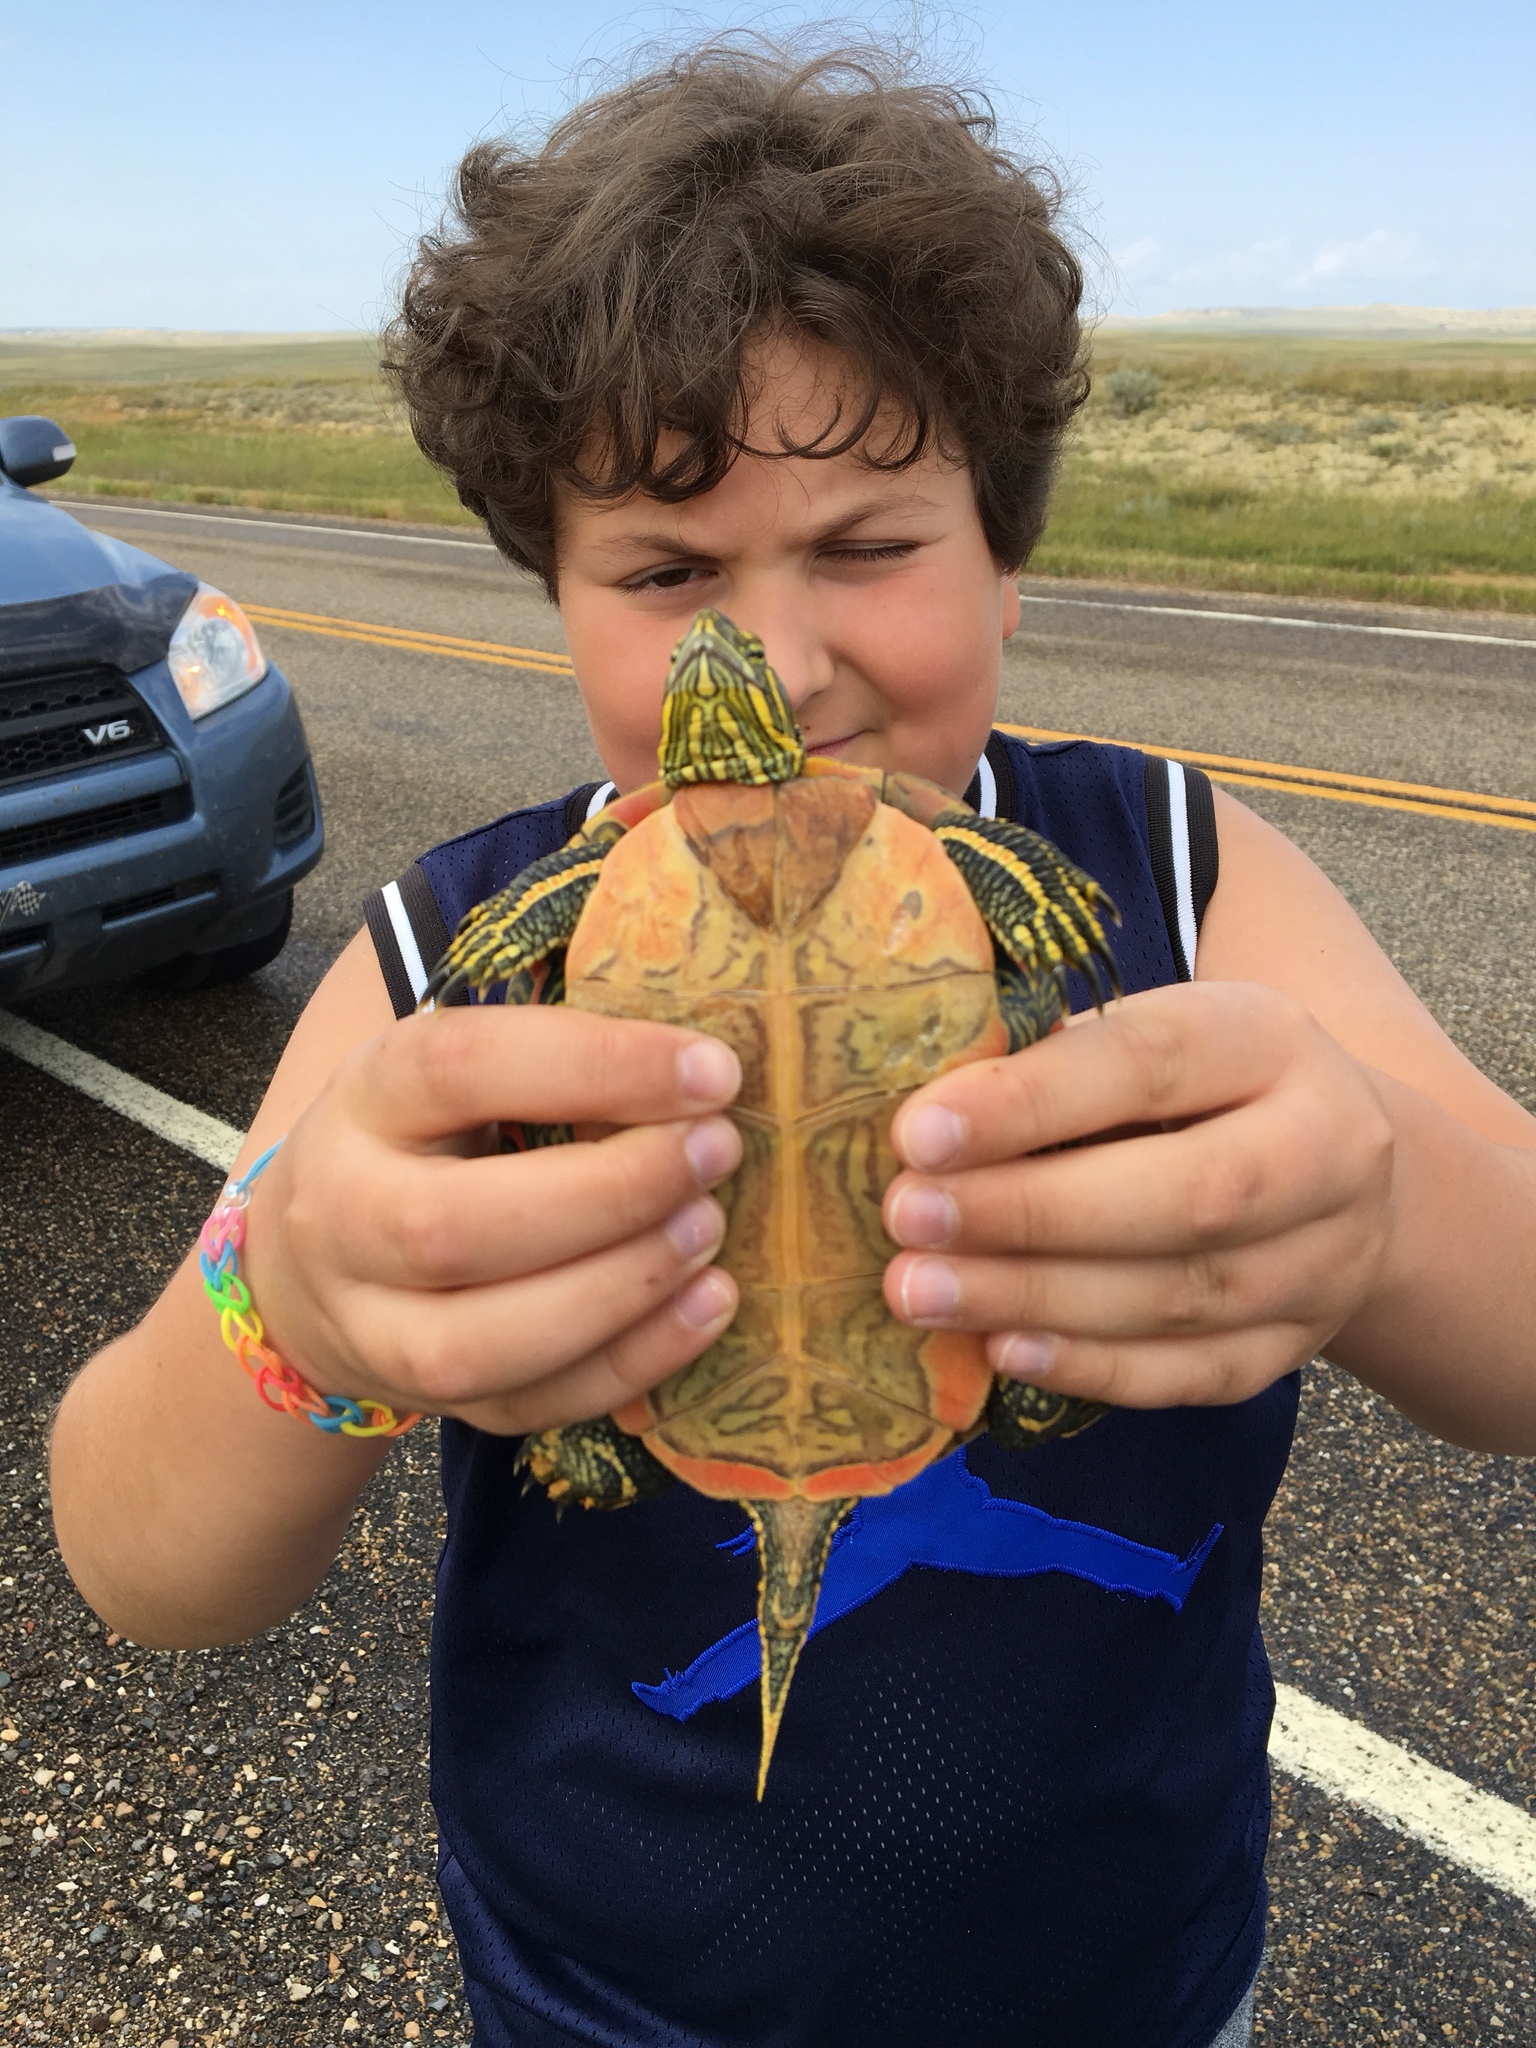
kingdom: Animalia
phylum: Chordata
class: Testudines
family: Emydidae
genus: Chrysemys
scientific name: Chrysemys picta
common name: Painted turtle
